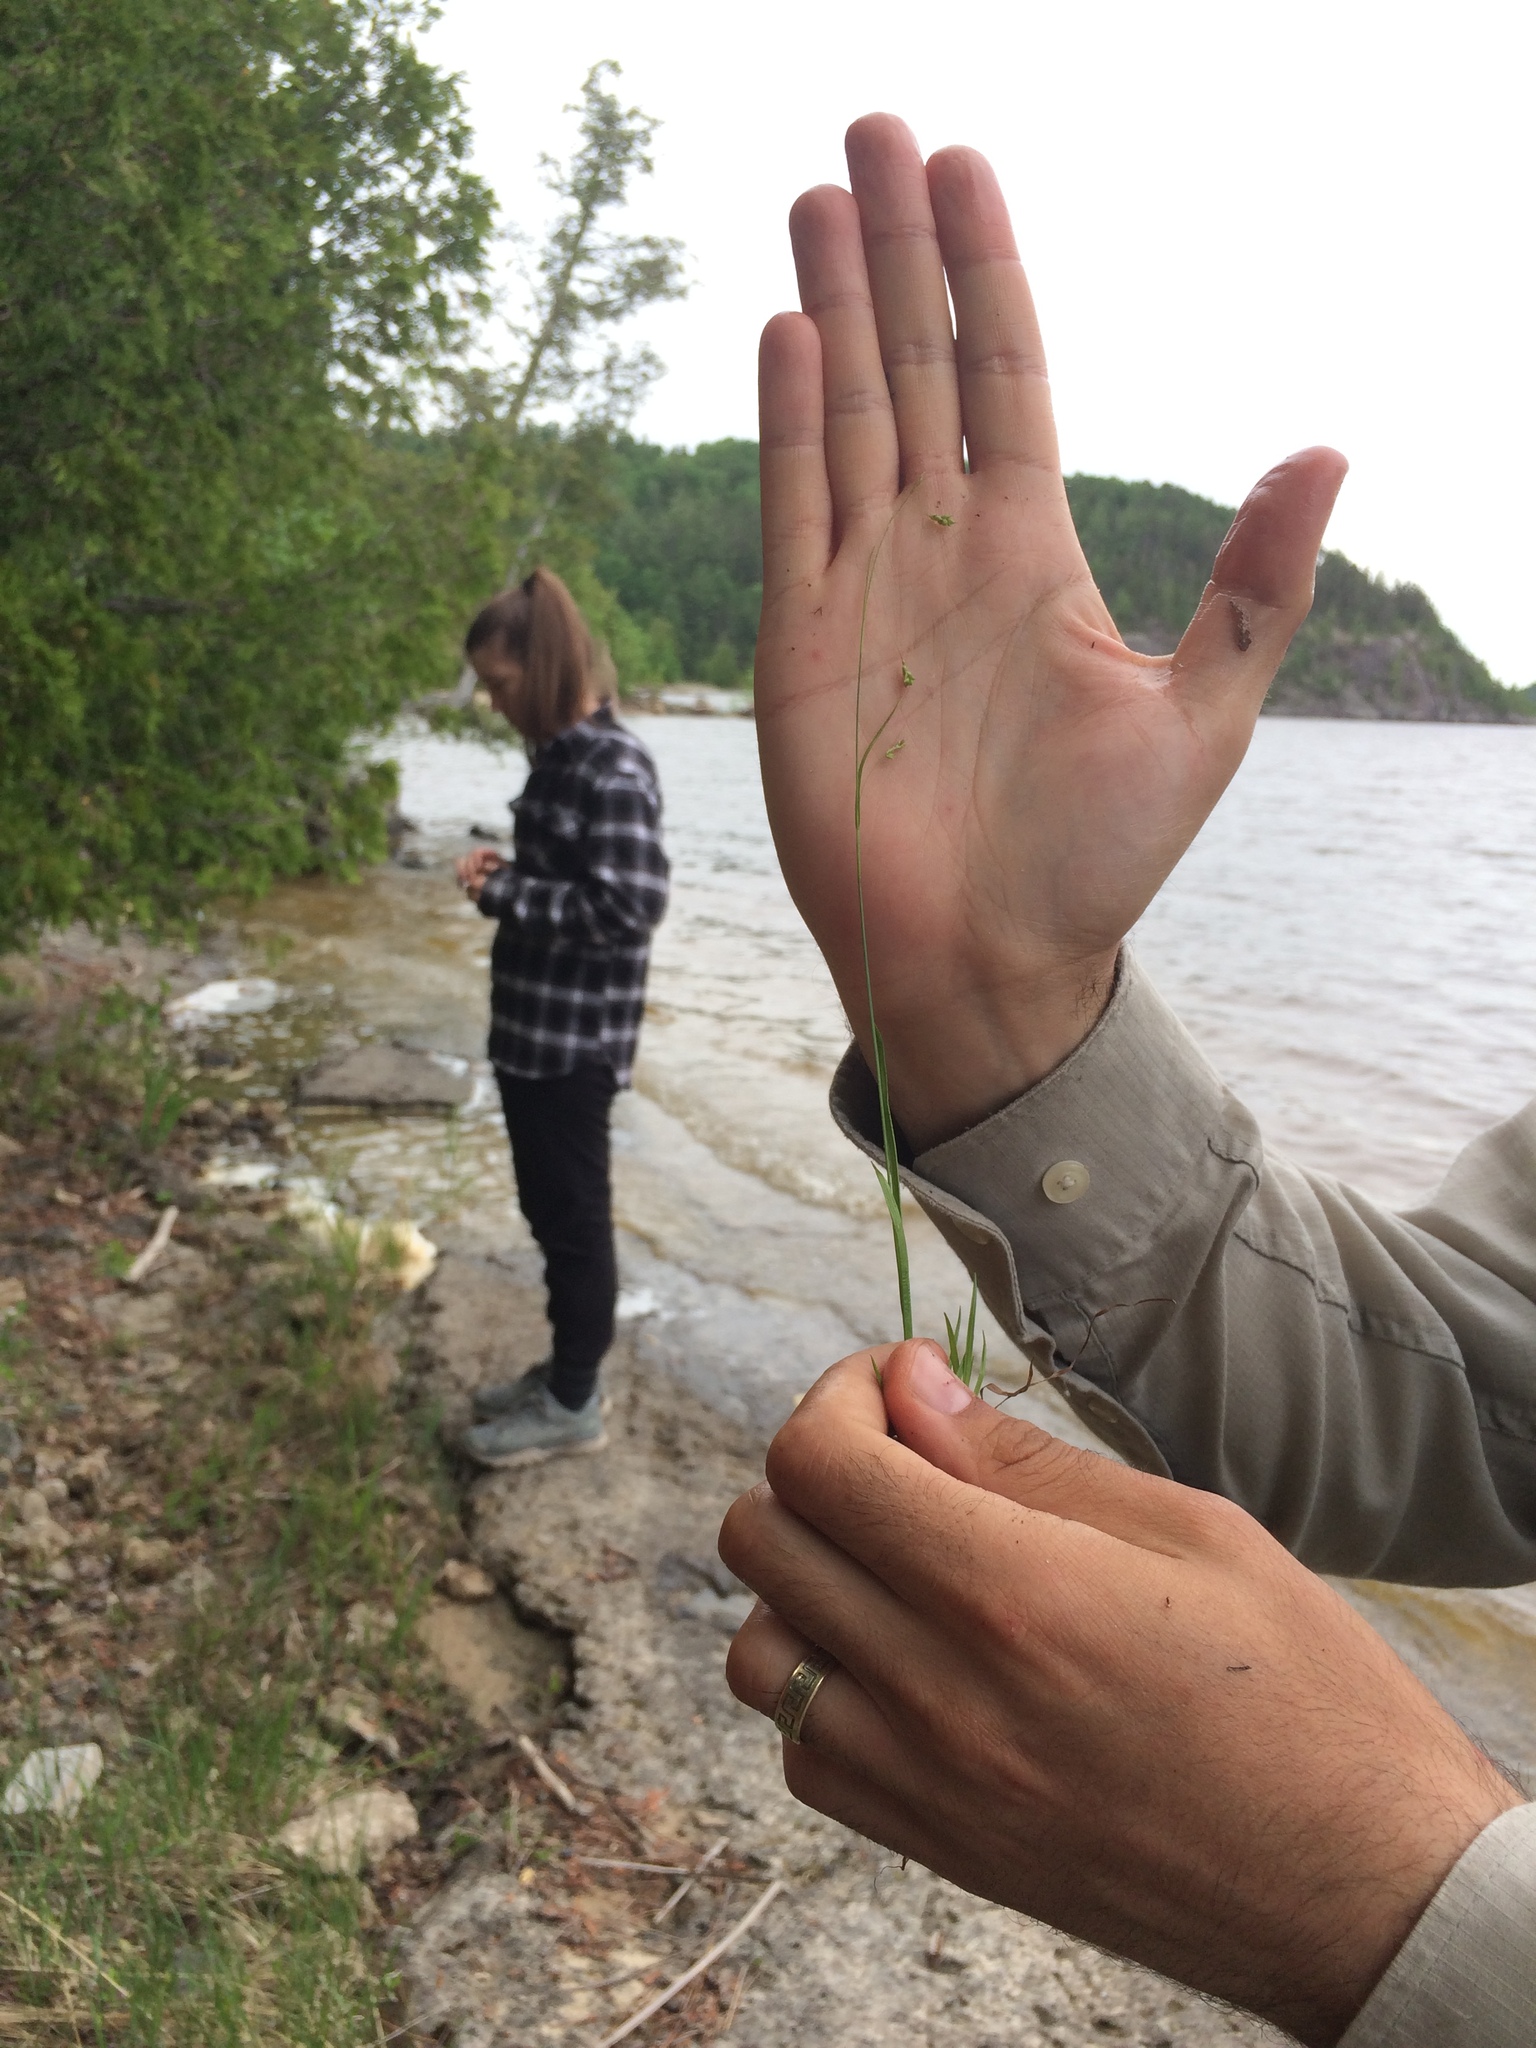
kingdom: Plantae
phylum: Tracheophyta
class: Liliopsida
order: Poales
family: Cyperaceae
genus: Carex
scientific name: Carex capillaris
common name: Hair sedge
